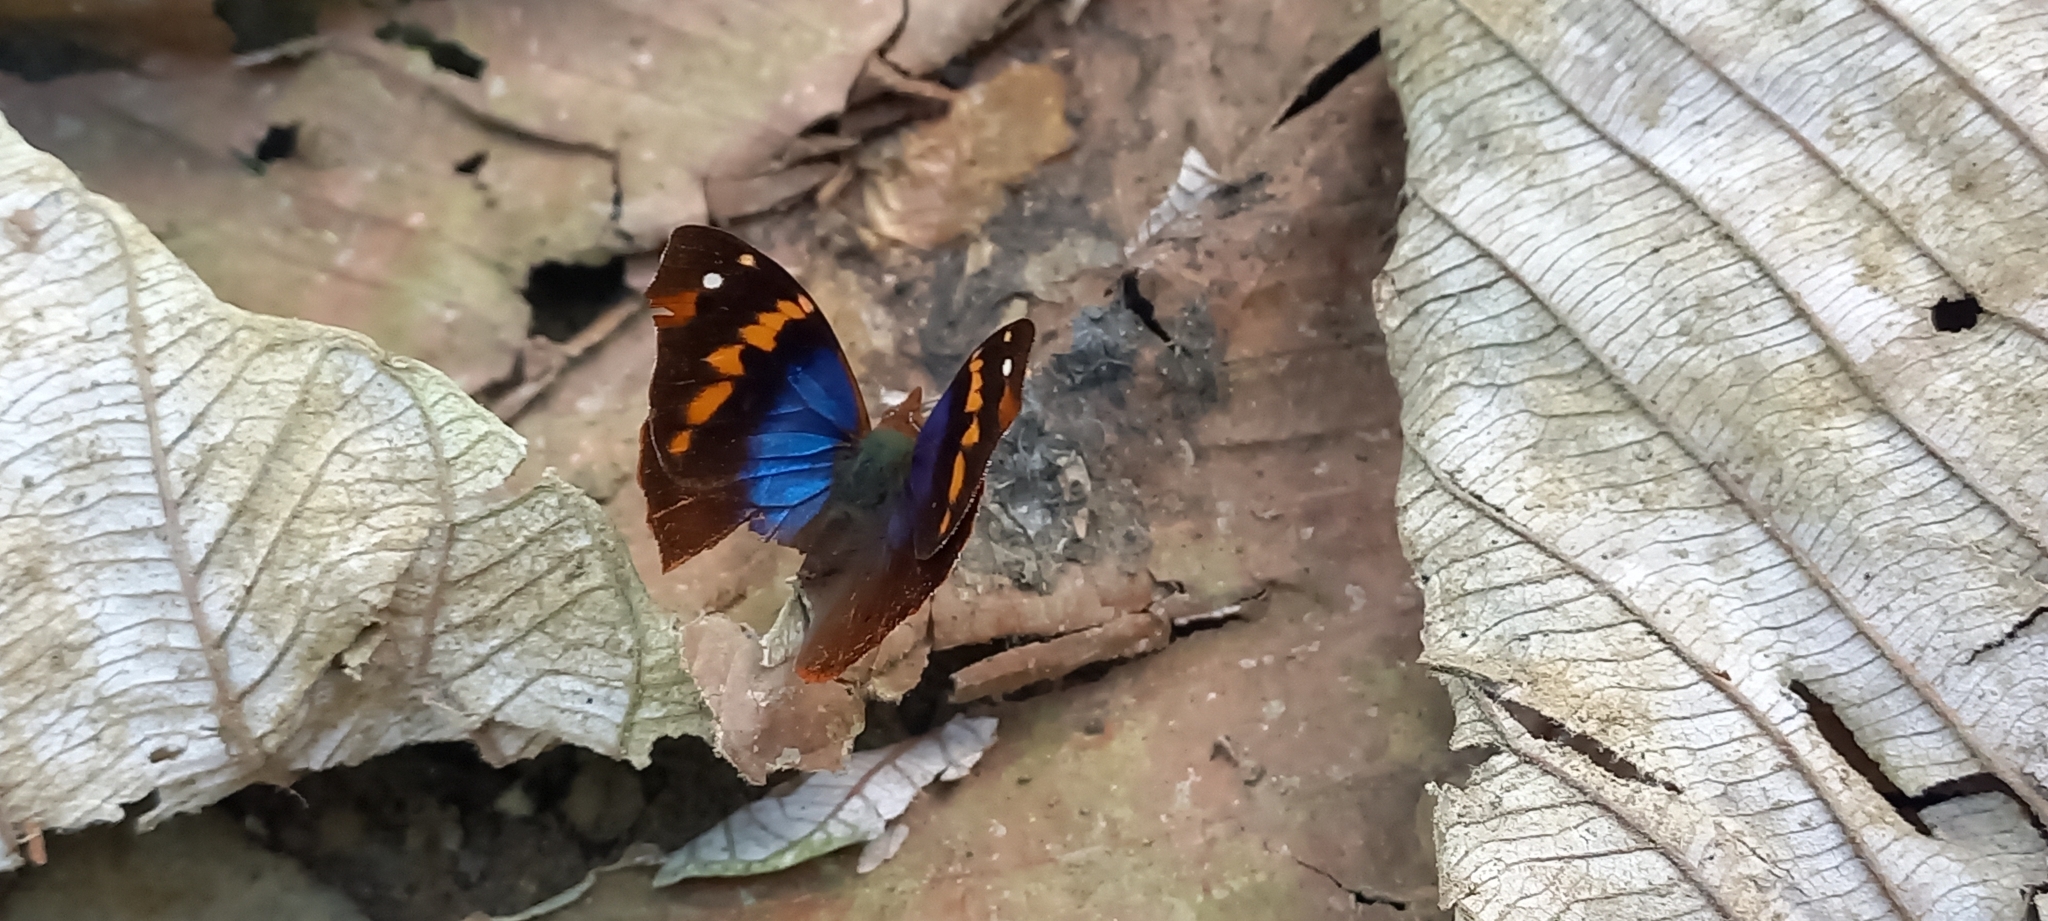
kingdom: Animalia
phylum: Arthropoda
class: Insecta
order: Lepidoptera
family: Nymphalidae
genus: Epiphile
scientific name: Epiphile epimenes
